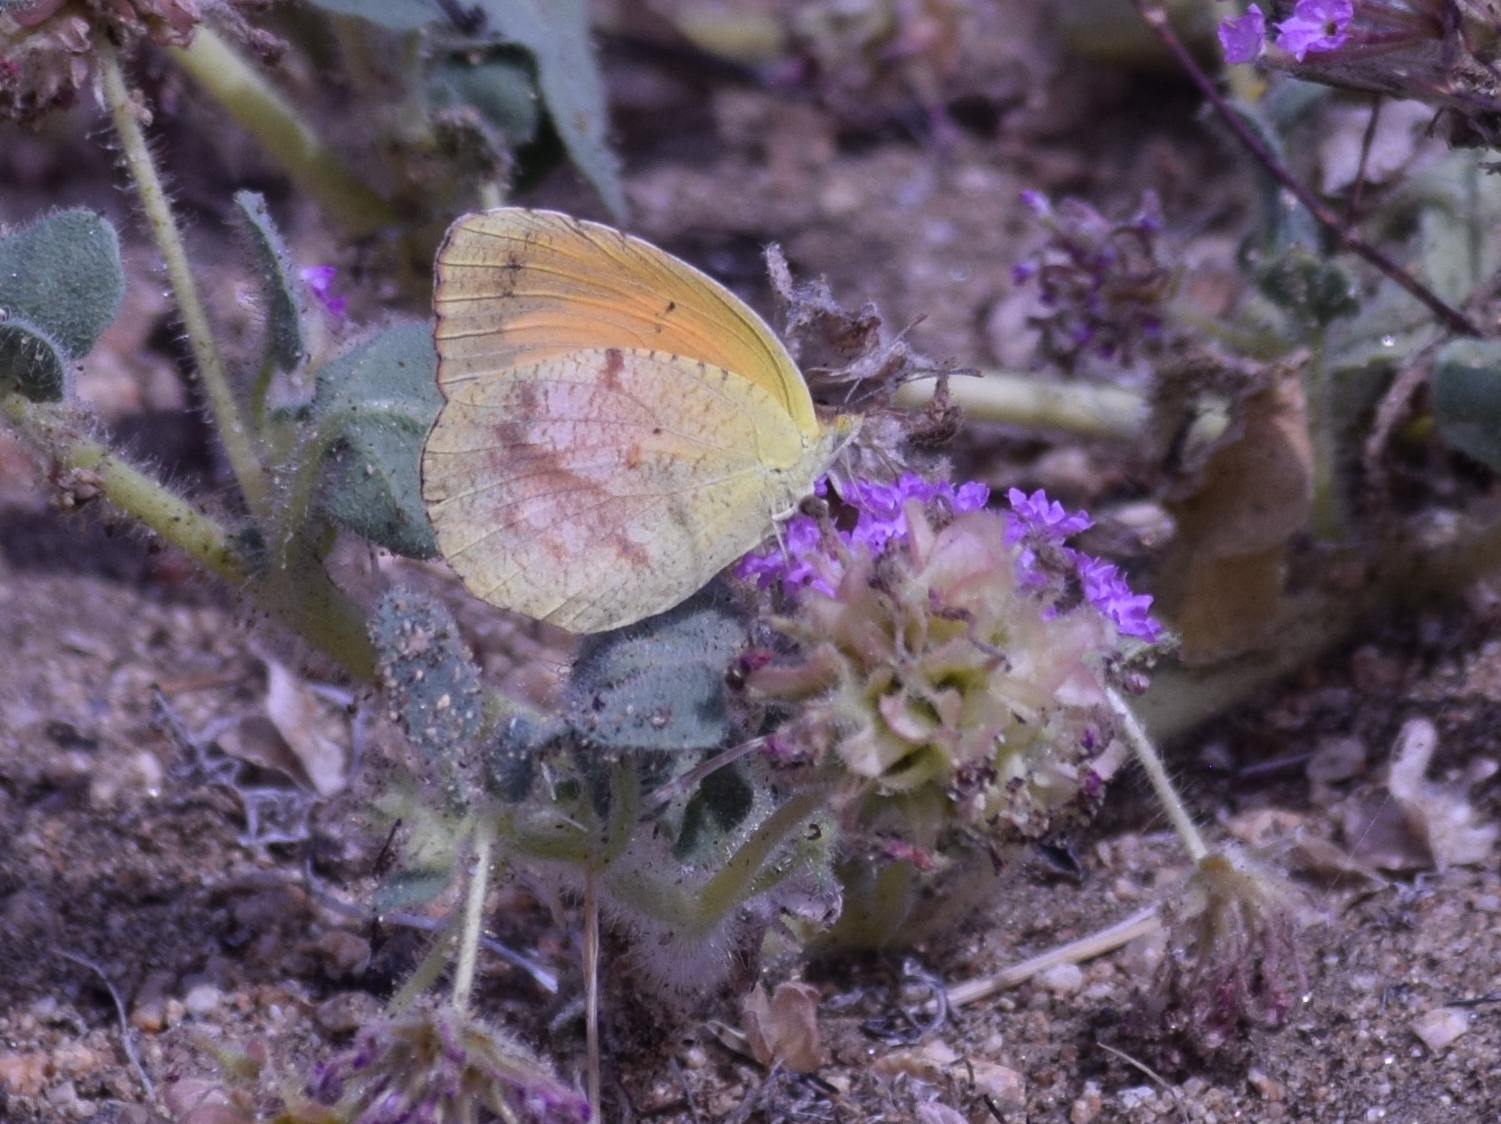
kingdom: Animalia
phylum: Arthropoda
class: Insecta
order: Lepidoptera
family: Pieridae
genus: Abaeis
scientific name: Abaeis nicippe
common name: Sleepy orange
